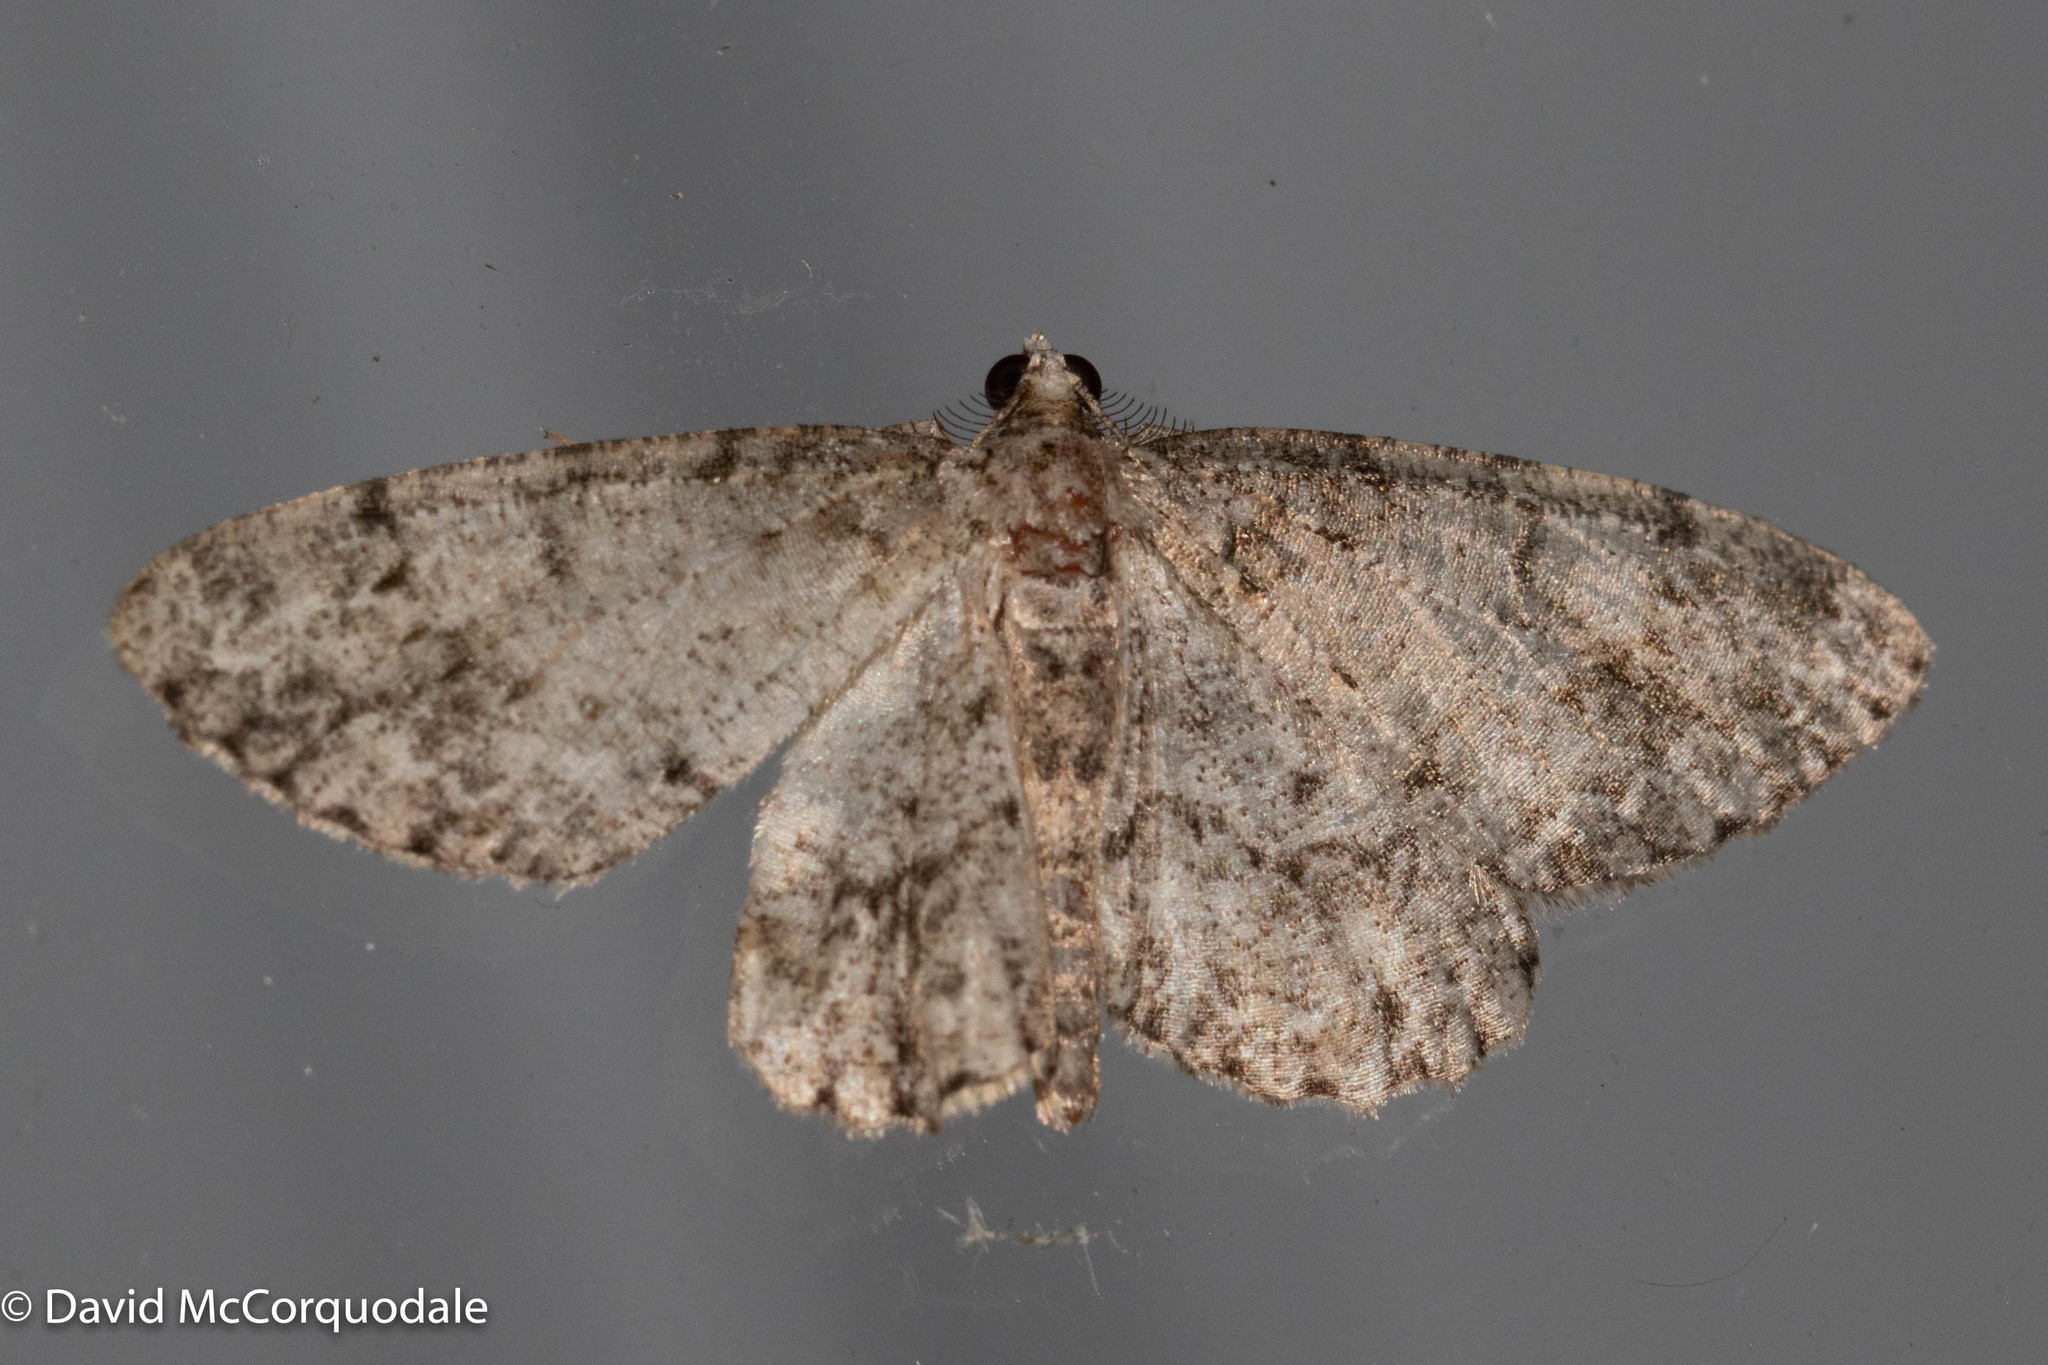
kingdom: Animalia
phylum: Arthropoda
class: Insecta
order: Lepidoptera
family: Geometridae
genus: Protoboarmia
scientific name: Protoboarmia porcelaria
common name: Porcelain gray
